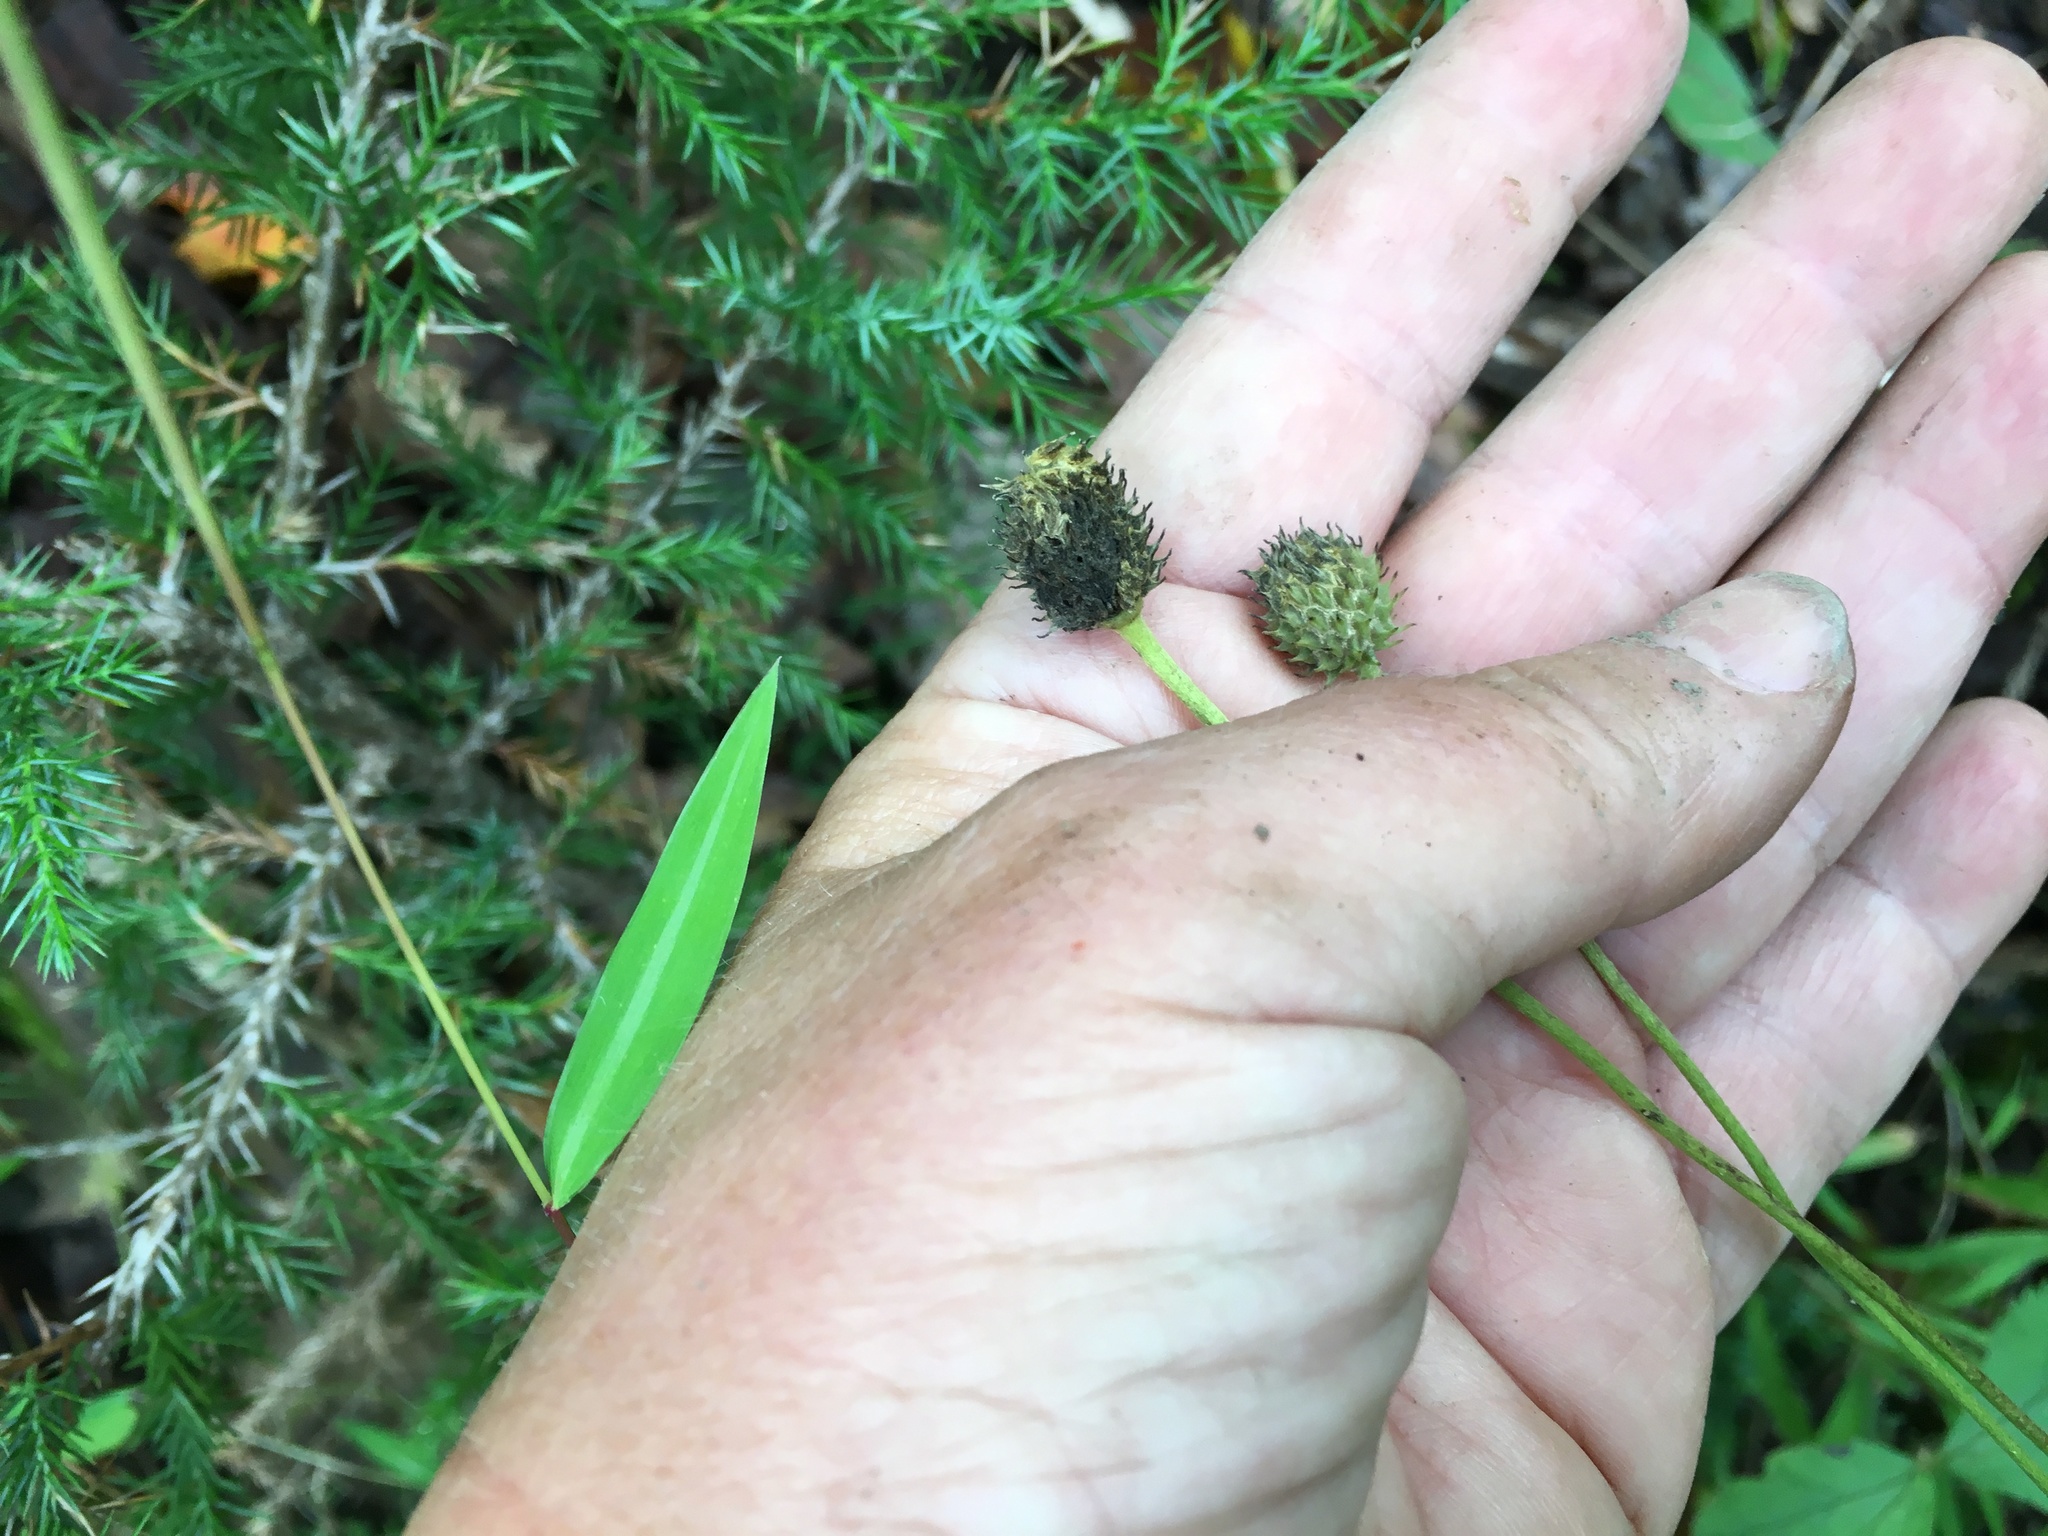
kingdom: Plantae
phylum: Tracheophyta
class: Magnoliopsida
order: Ranunculales
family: Ranunculaceae
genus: Anemone
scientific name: Anemone virginiana
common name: Tall anemone
